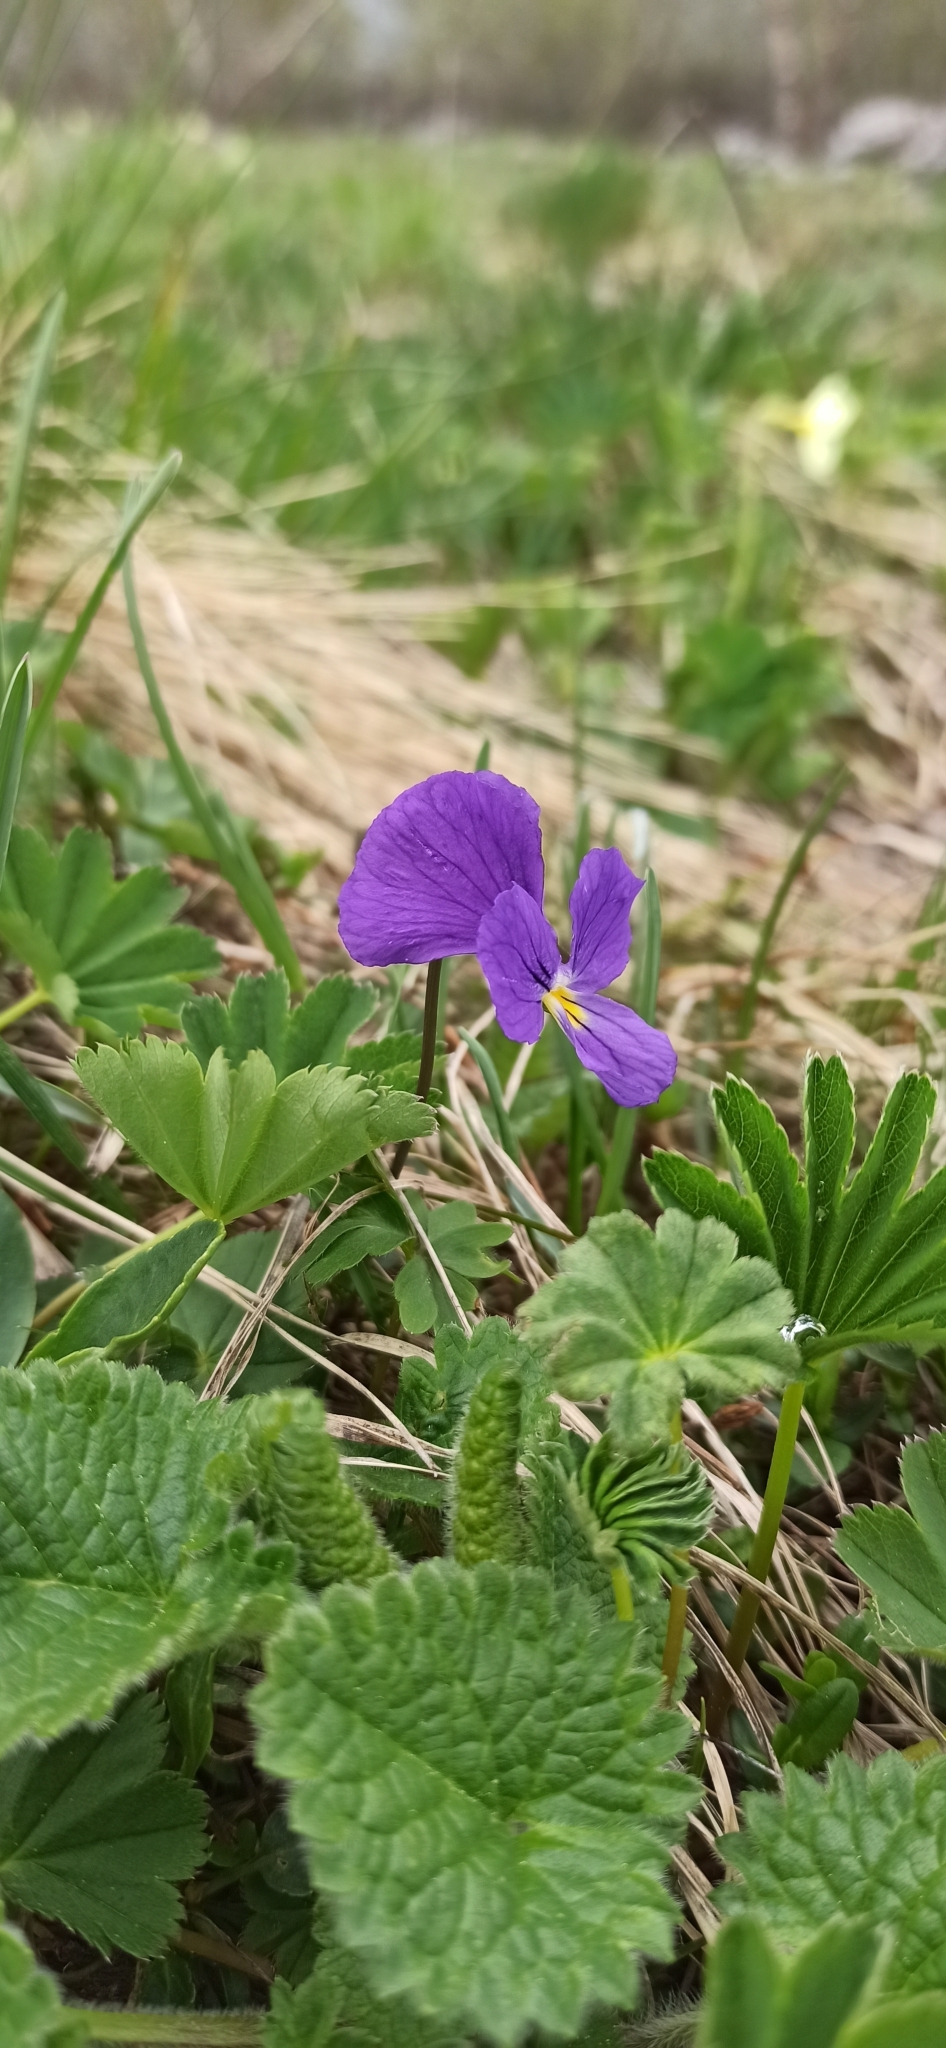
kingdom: Plantae
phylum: Tracheophyta
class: Magnoliopsida
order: Malpighiales
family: Violaceae
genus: Viola
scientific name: Viola oreades
